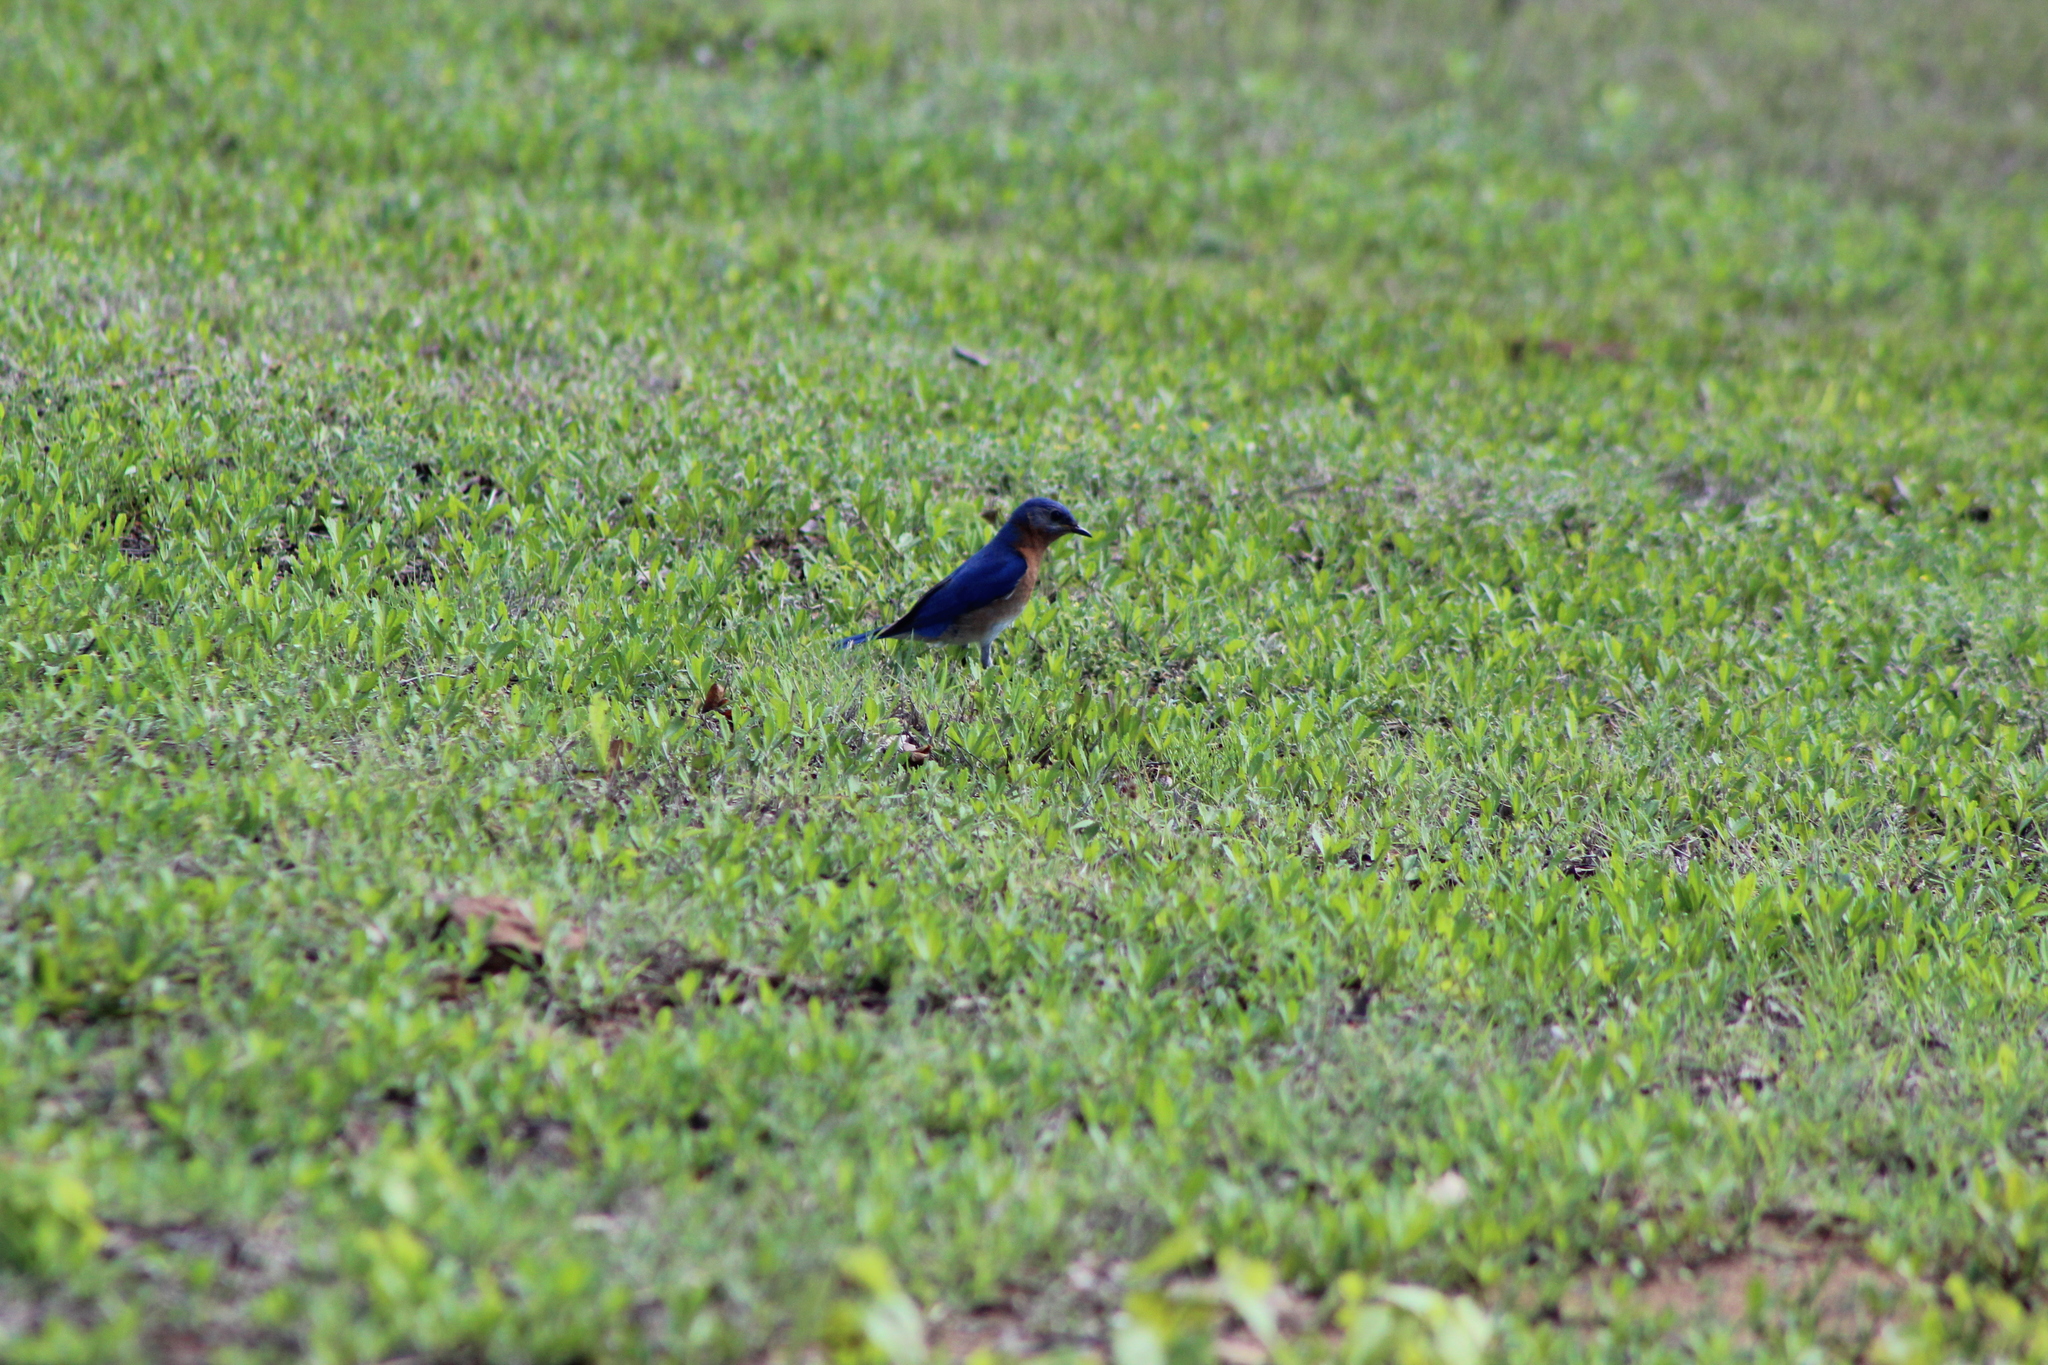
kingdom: Animalia
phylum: Chordata
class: Aves
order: Passeriformes
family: Turdidae
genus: Sialia
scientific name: Sialia sialis
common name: Eastern bluebird
